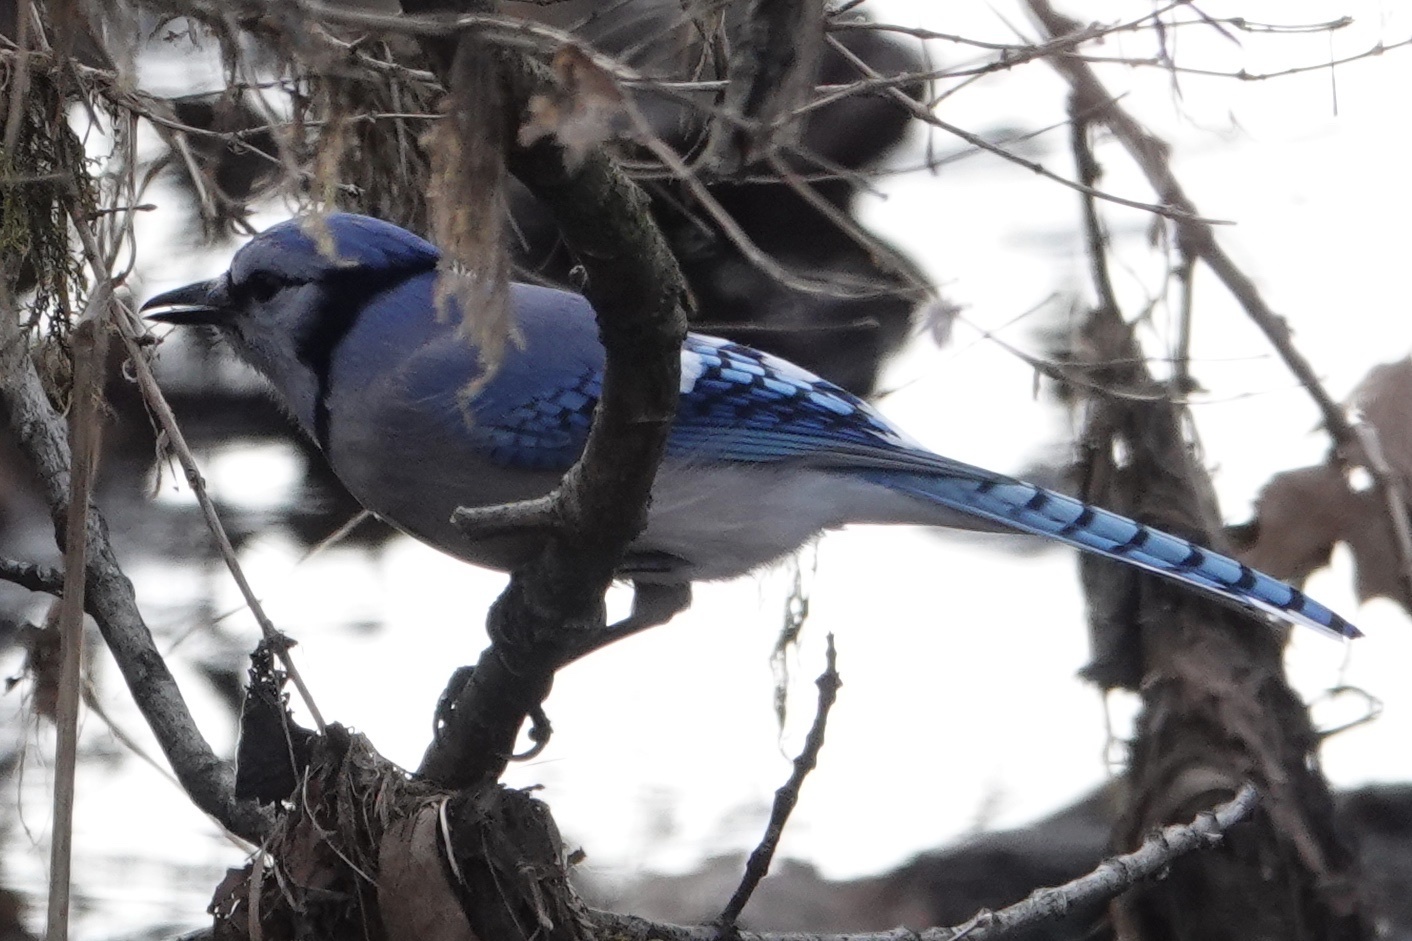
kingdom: Animalia
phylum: Chordata
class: Aves
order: Passeriformes
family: Corvidae
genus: Cyanocitta
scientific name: Cyanocitta cristata
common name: Blue jay
